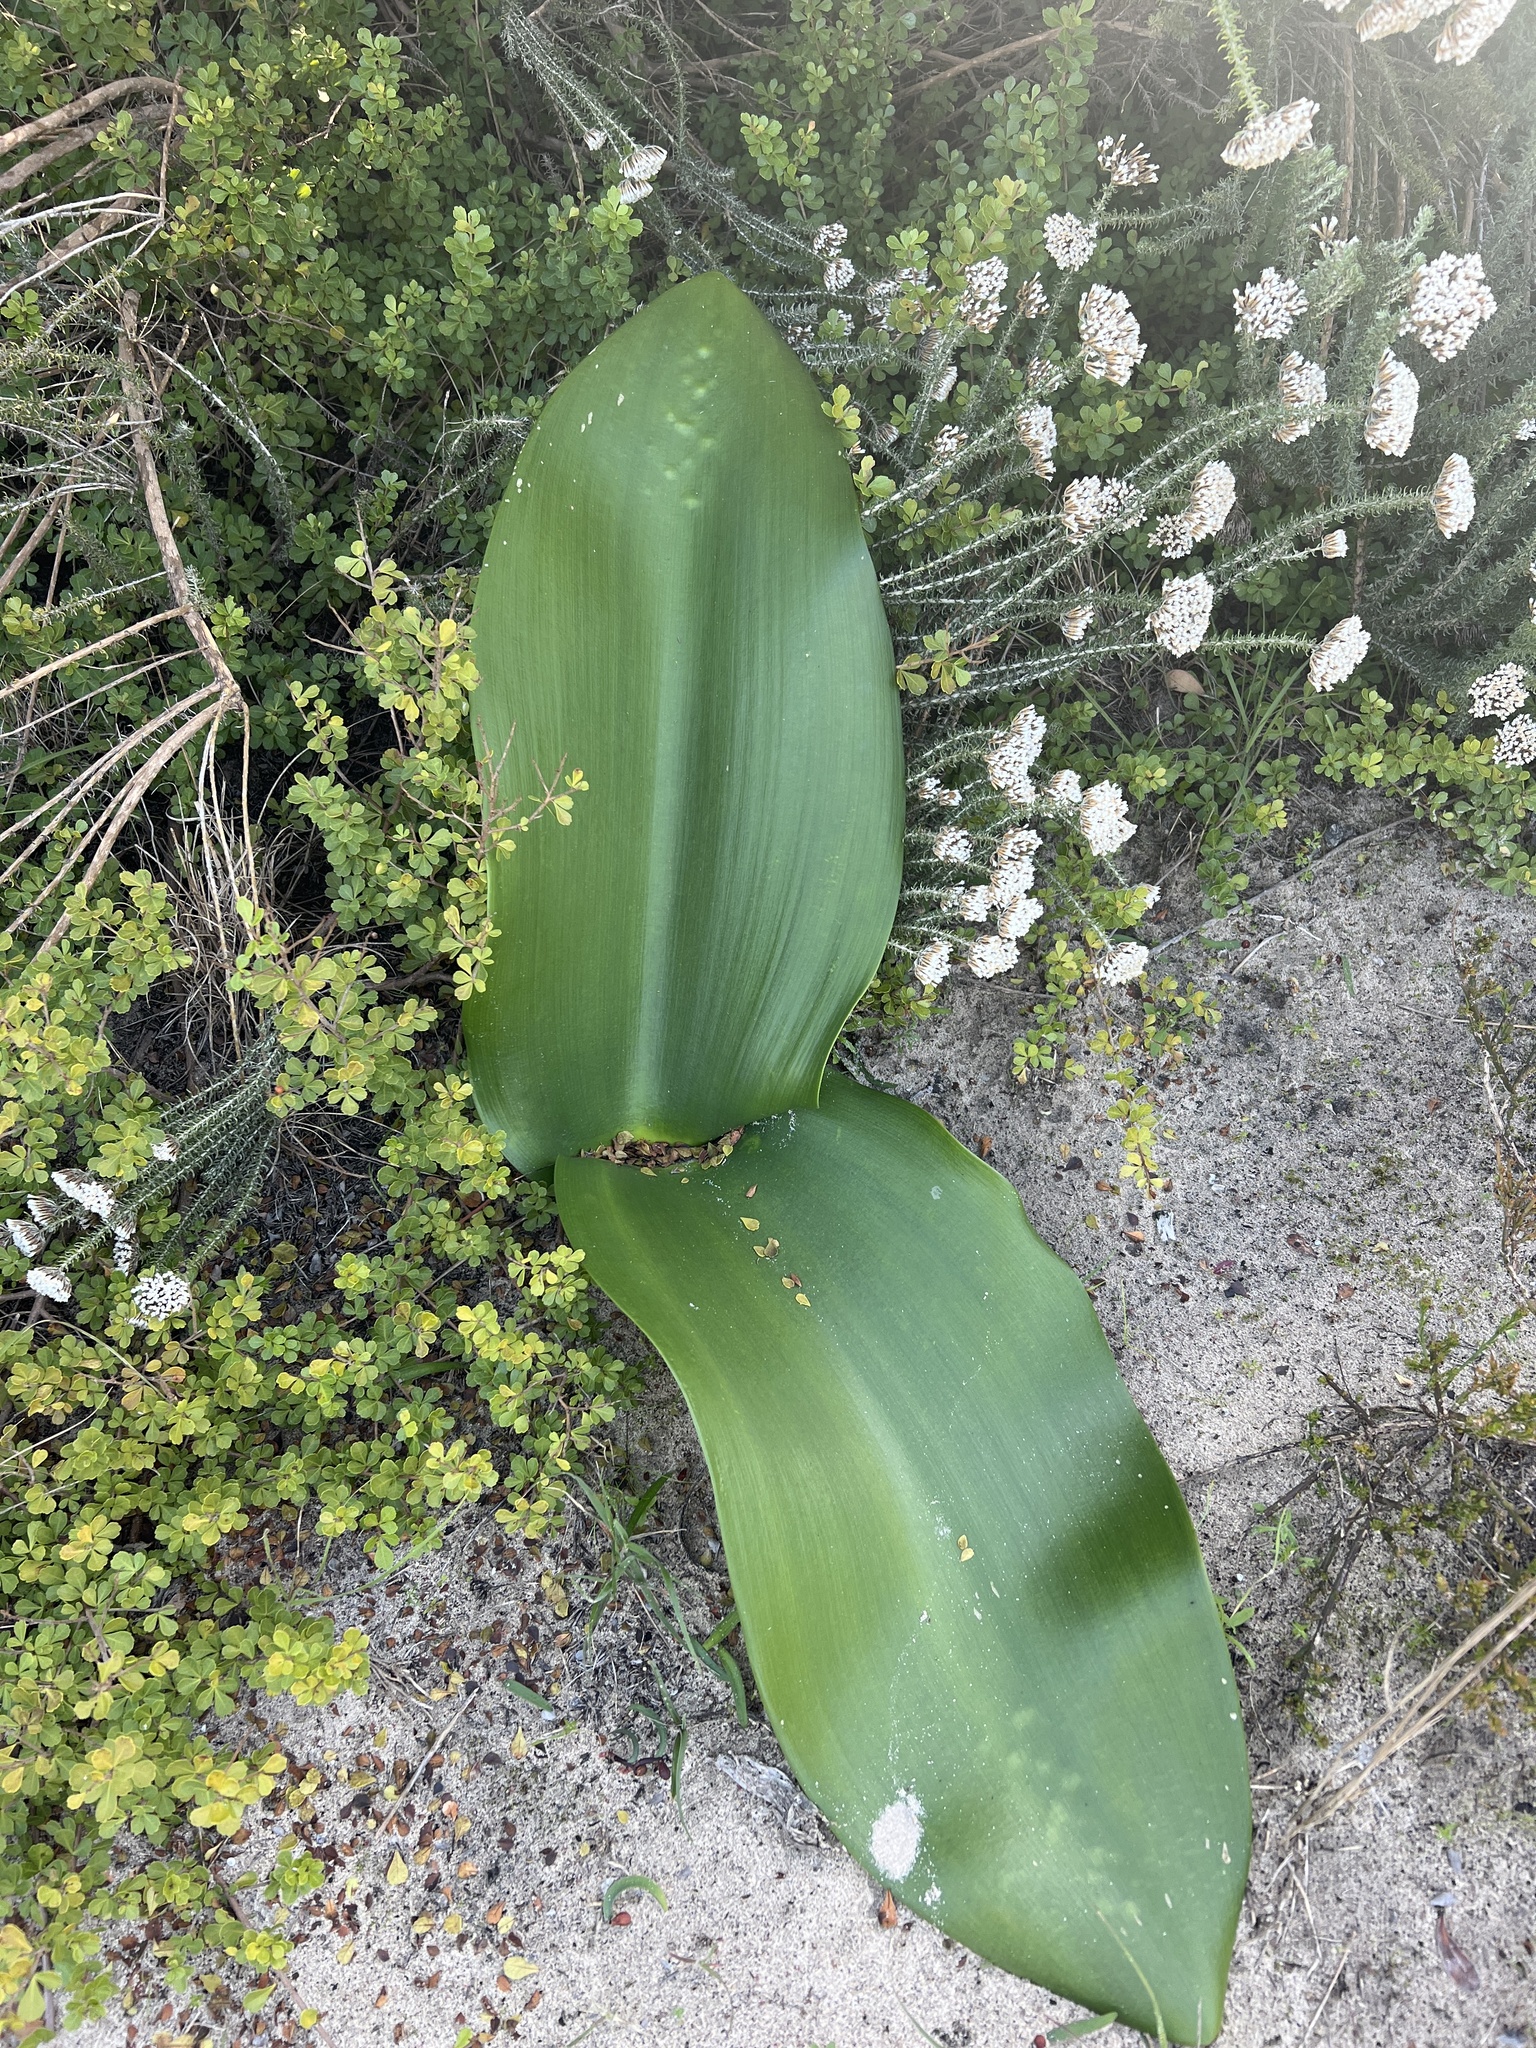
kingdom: Plantae
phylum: Tracheophyta
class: Liliopsida
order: Asparagales
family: Amaryllidaceae
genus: Haemanthus
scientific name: Haemanthus coccineus
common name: Cape-tulip
